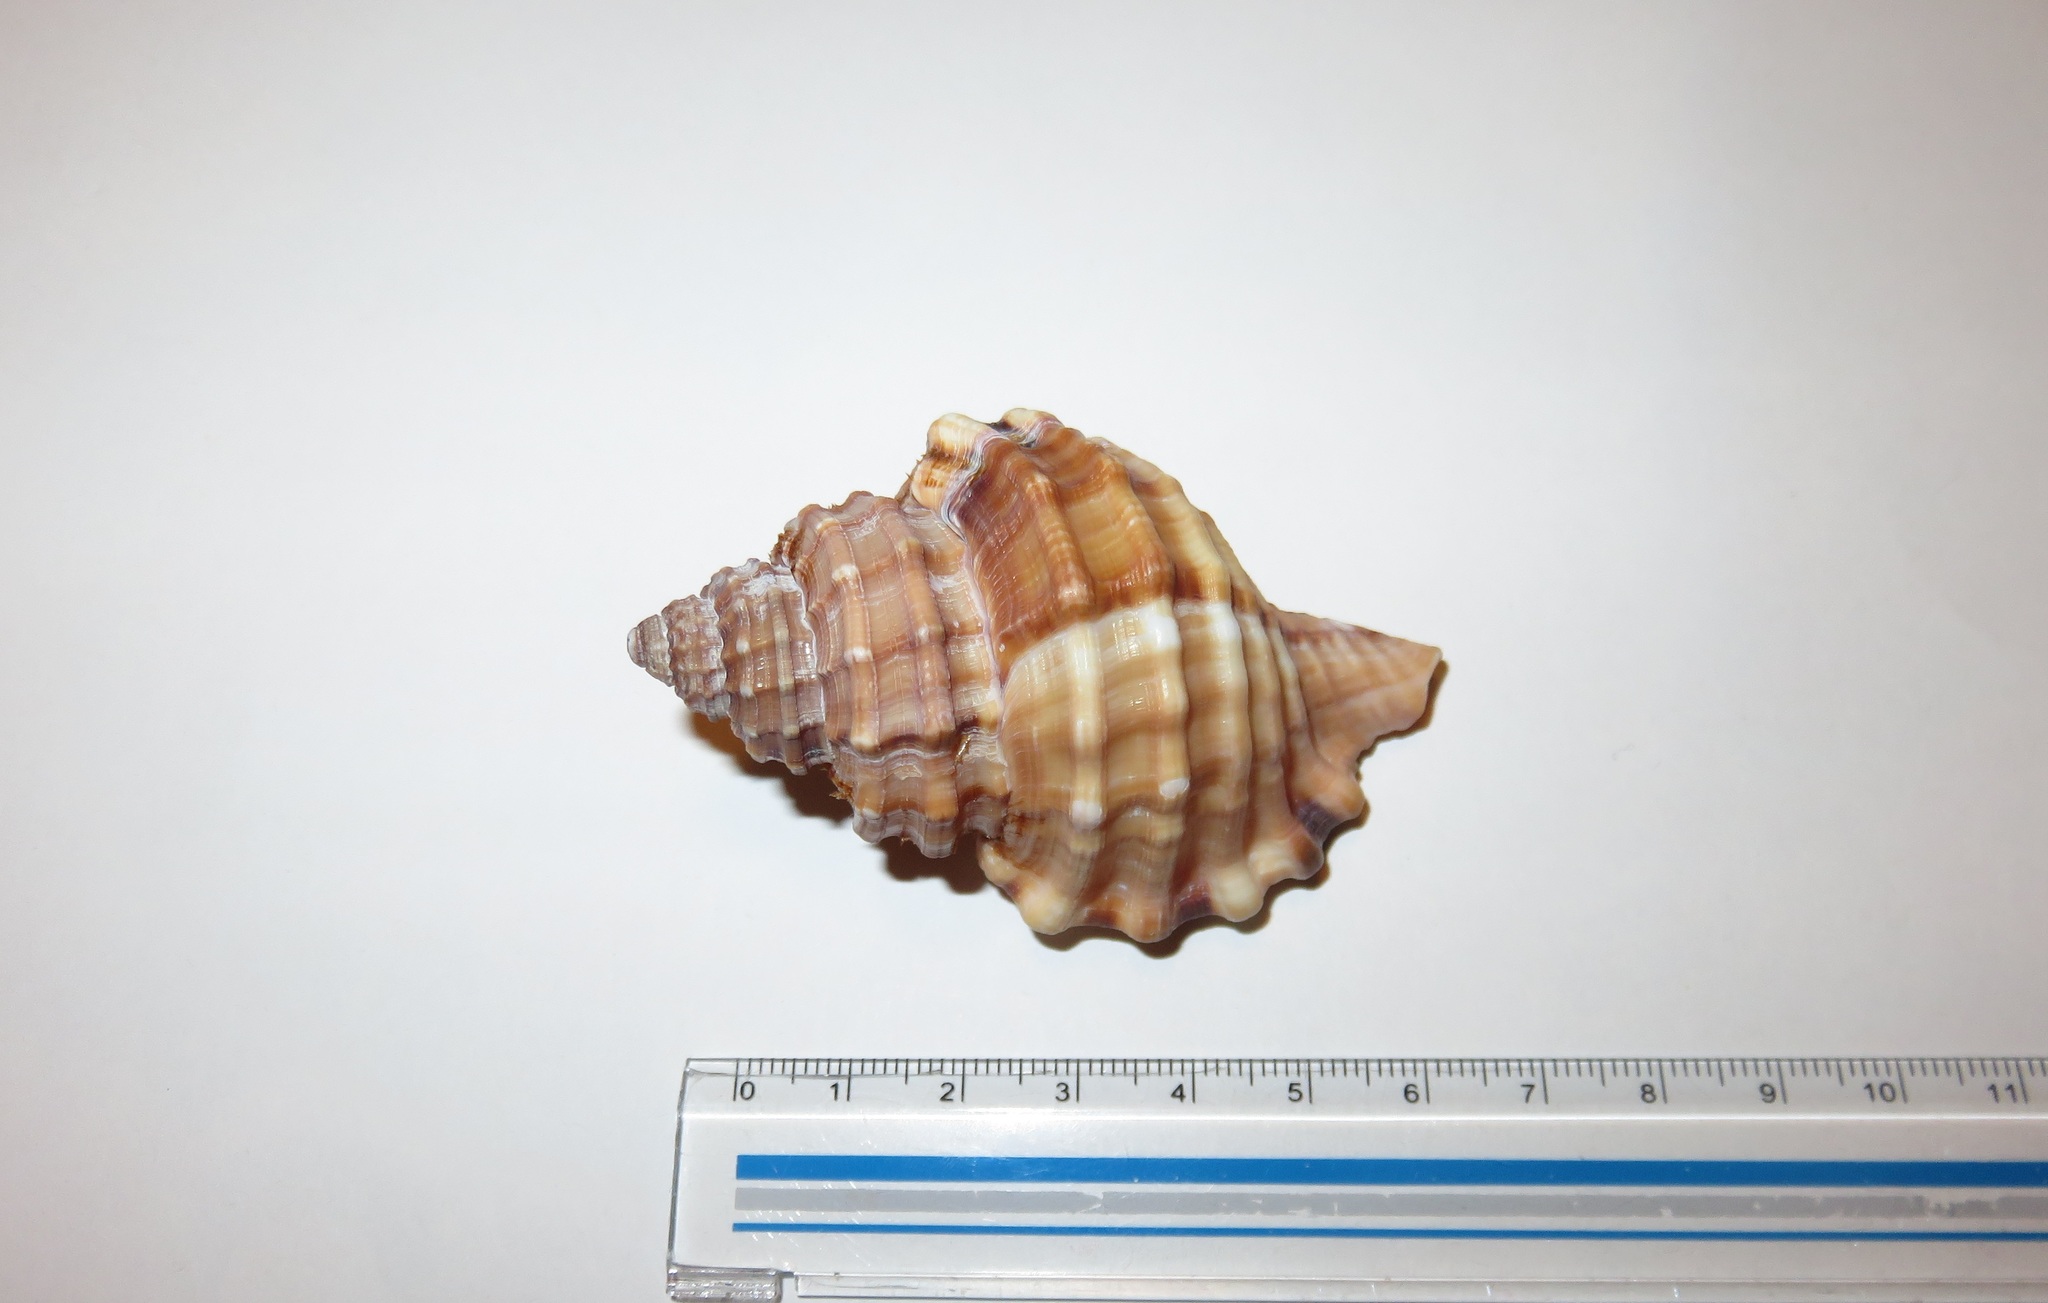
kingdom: Animalia
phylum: Mollusca
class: Gastropoda
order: Littorinimorpha
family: Cymatiidae
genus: Monoplex
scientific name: Monoplex parthenopeus
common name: Giant triton
